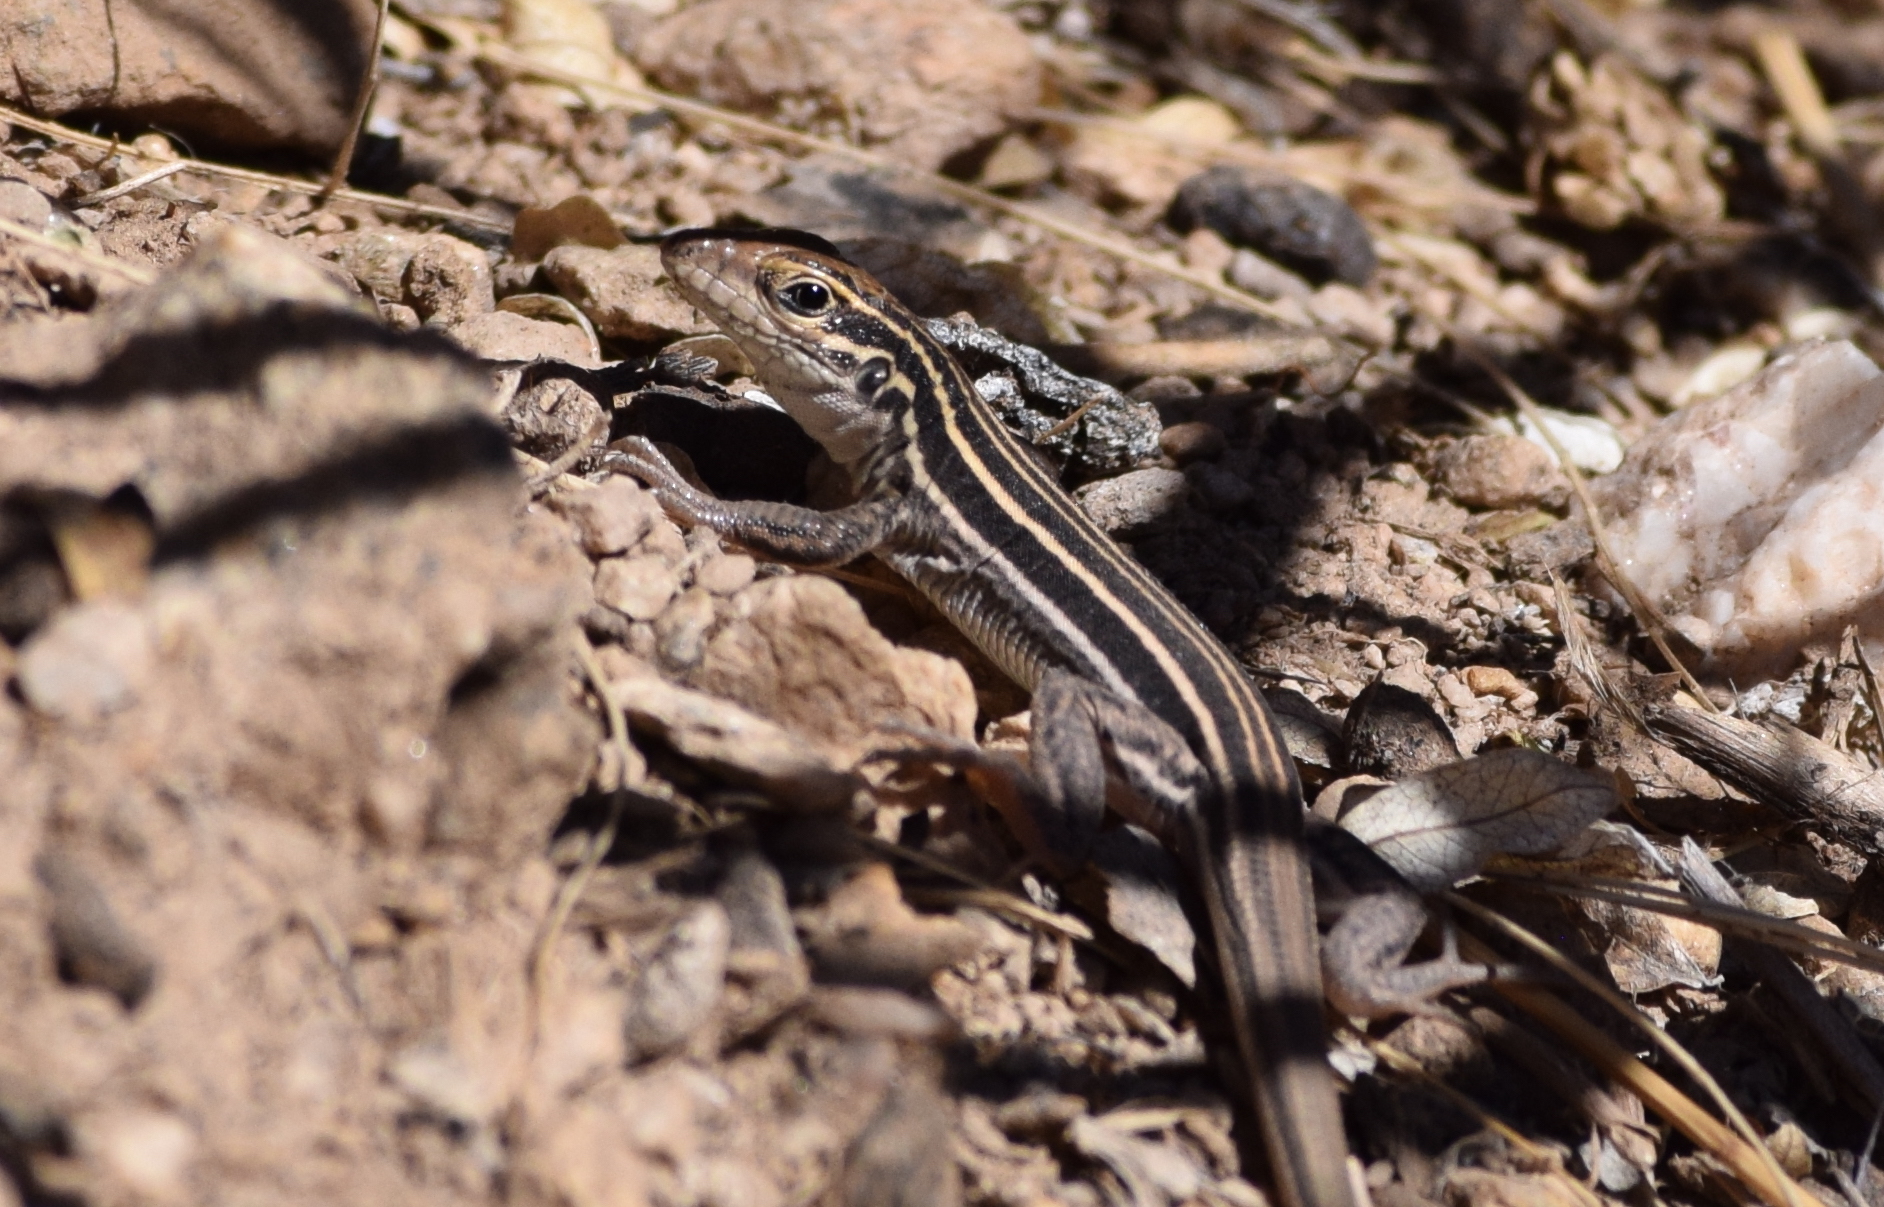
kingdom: Animalia
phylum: Chordata
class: Squamata
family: Teiidae
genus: Aspidoscelis
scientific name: Aspidoscelis uniparens
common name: Desert grassland whiptail
